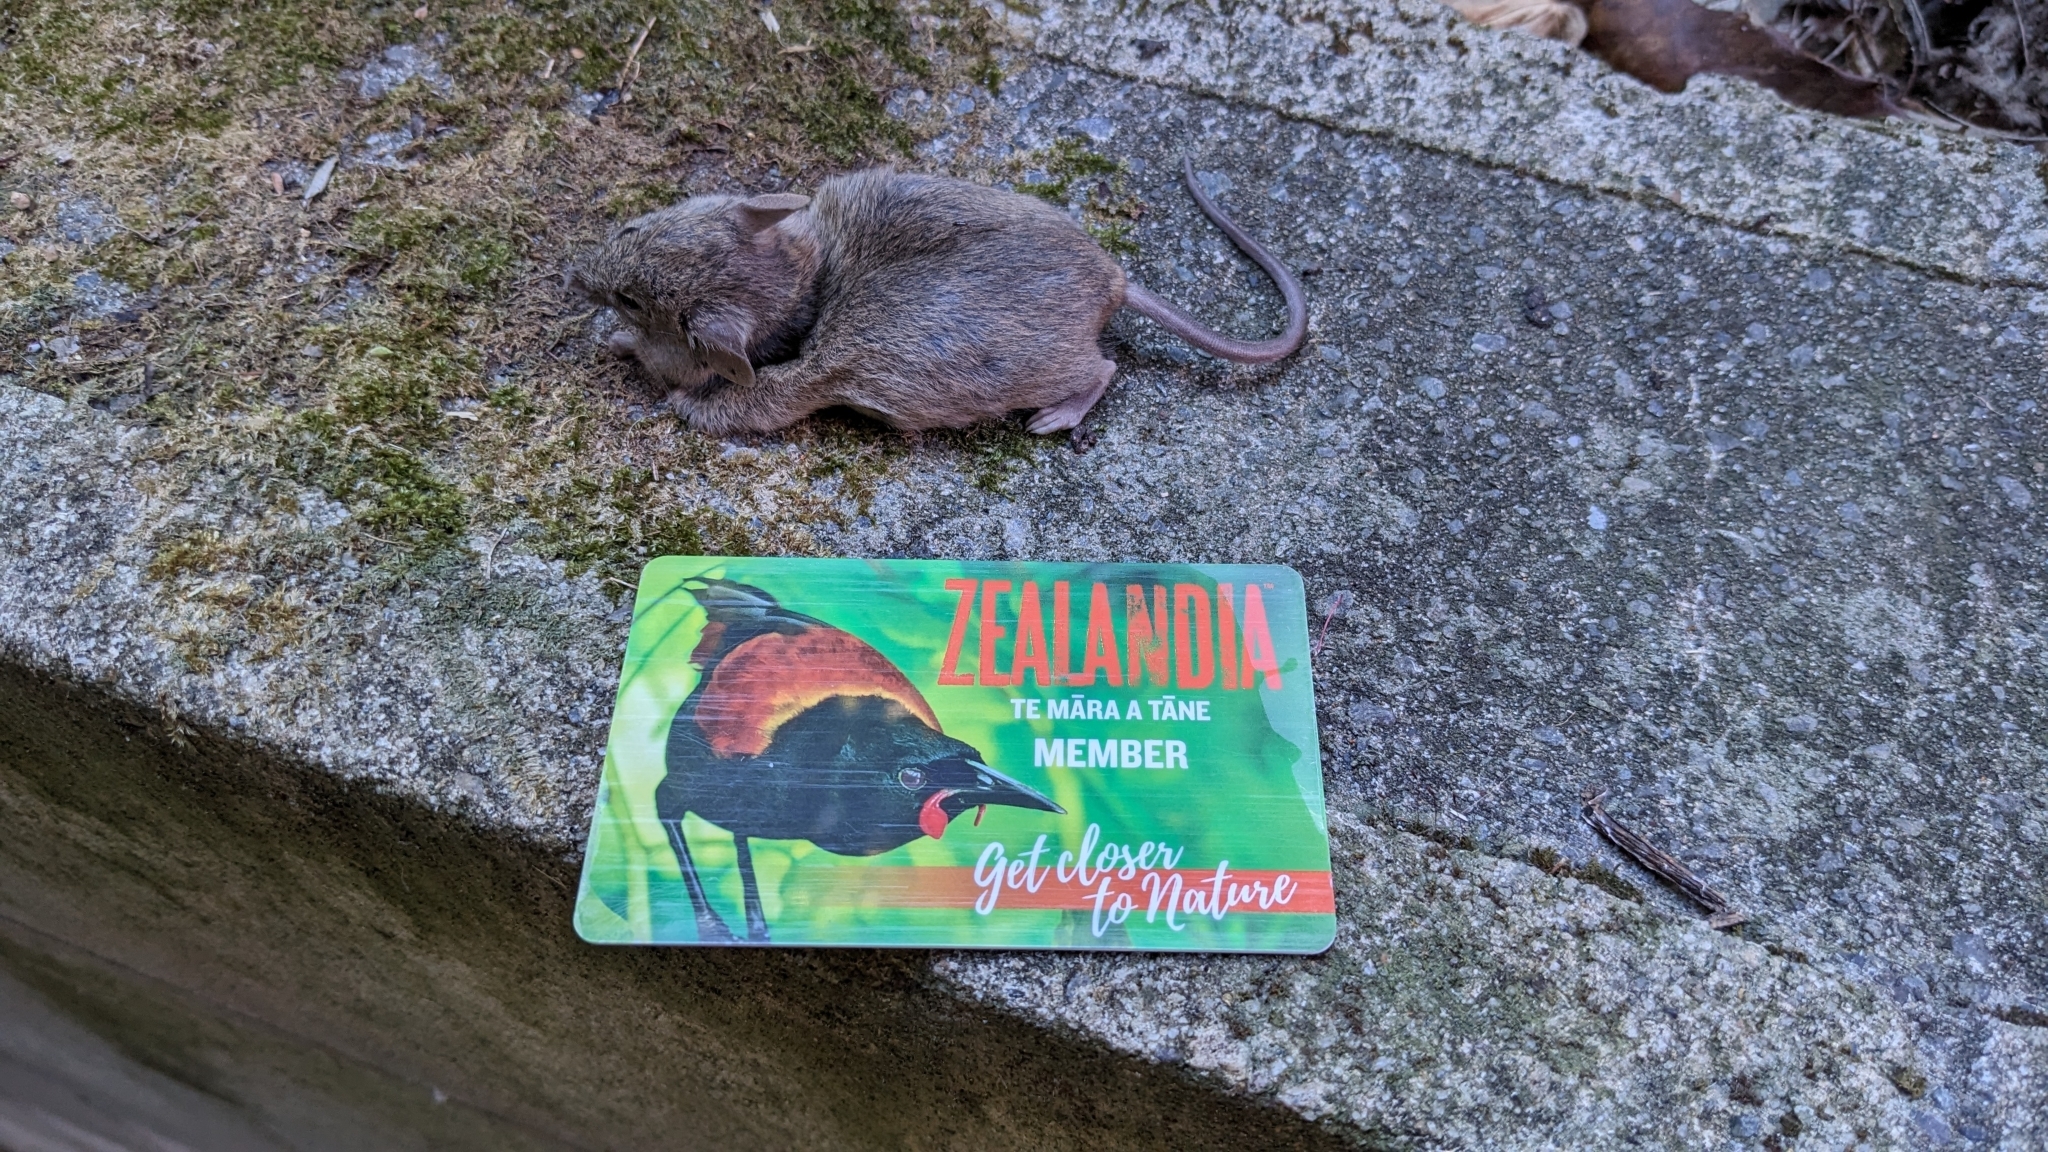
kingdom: Animalia
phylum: Chordata
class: Mammalia
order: Rodentia
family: Muridae
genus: Mus
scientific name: Mus musculus
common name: House mouse
